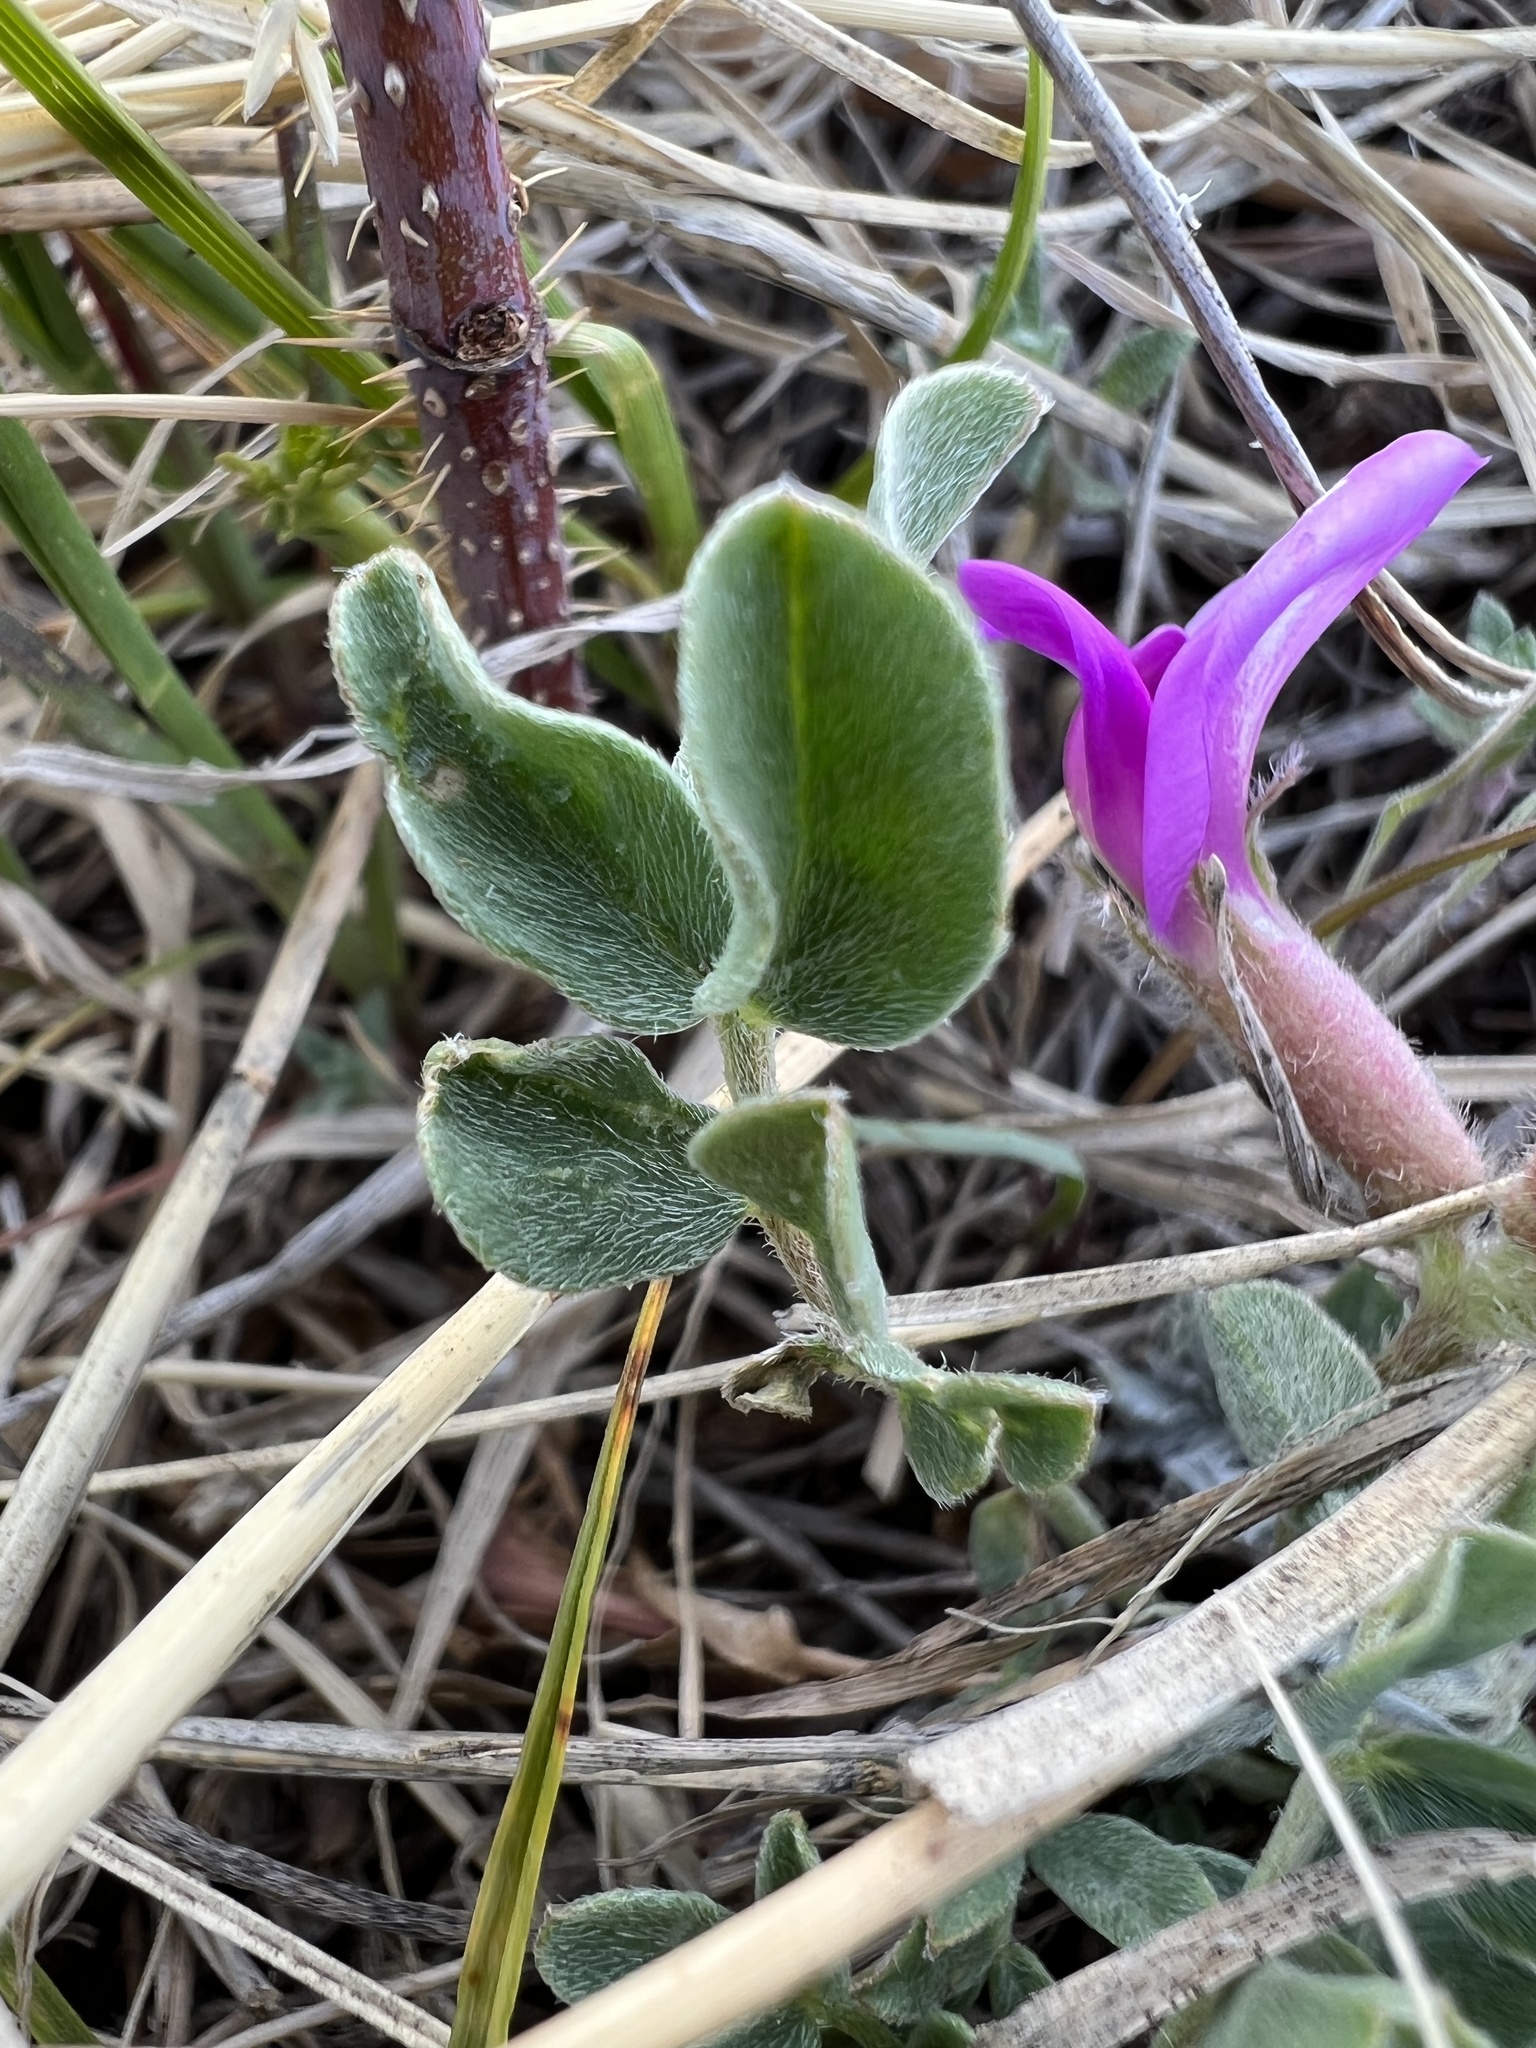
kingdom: Plantae
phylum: Tracheophyta
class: Magnoliopsida
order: Fabales
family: Fabaceae
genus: Astragalus
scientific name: Astragalus shortianus
